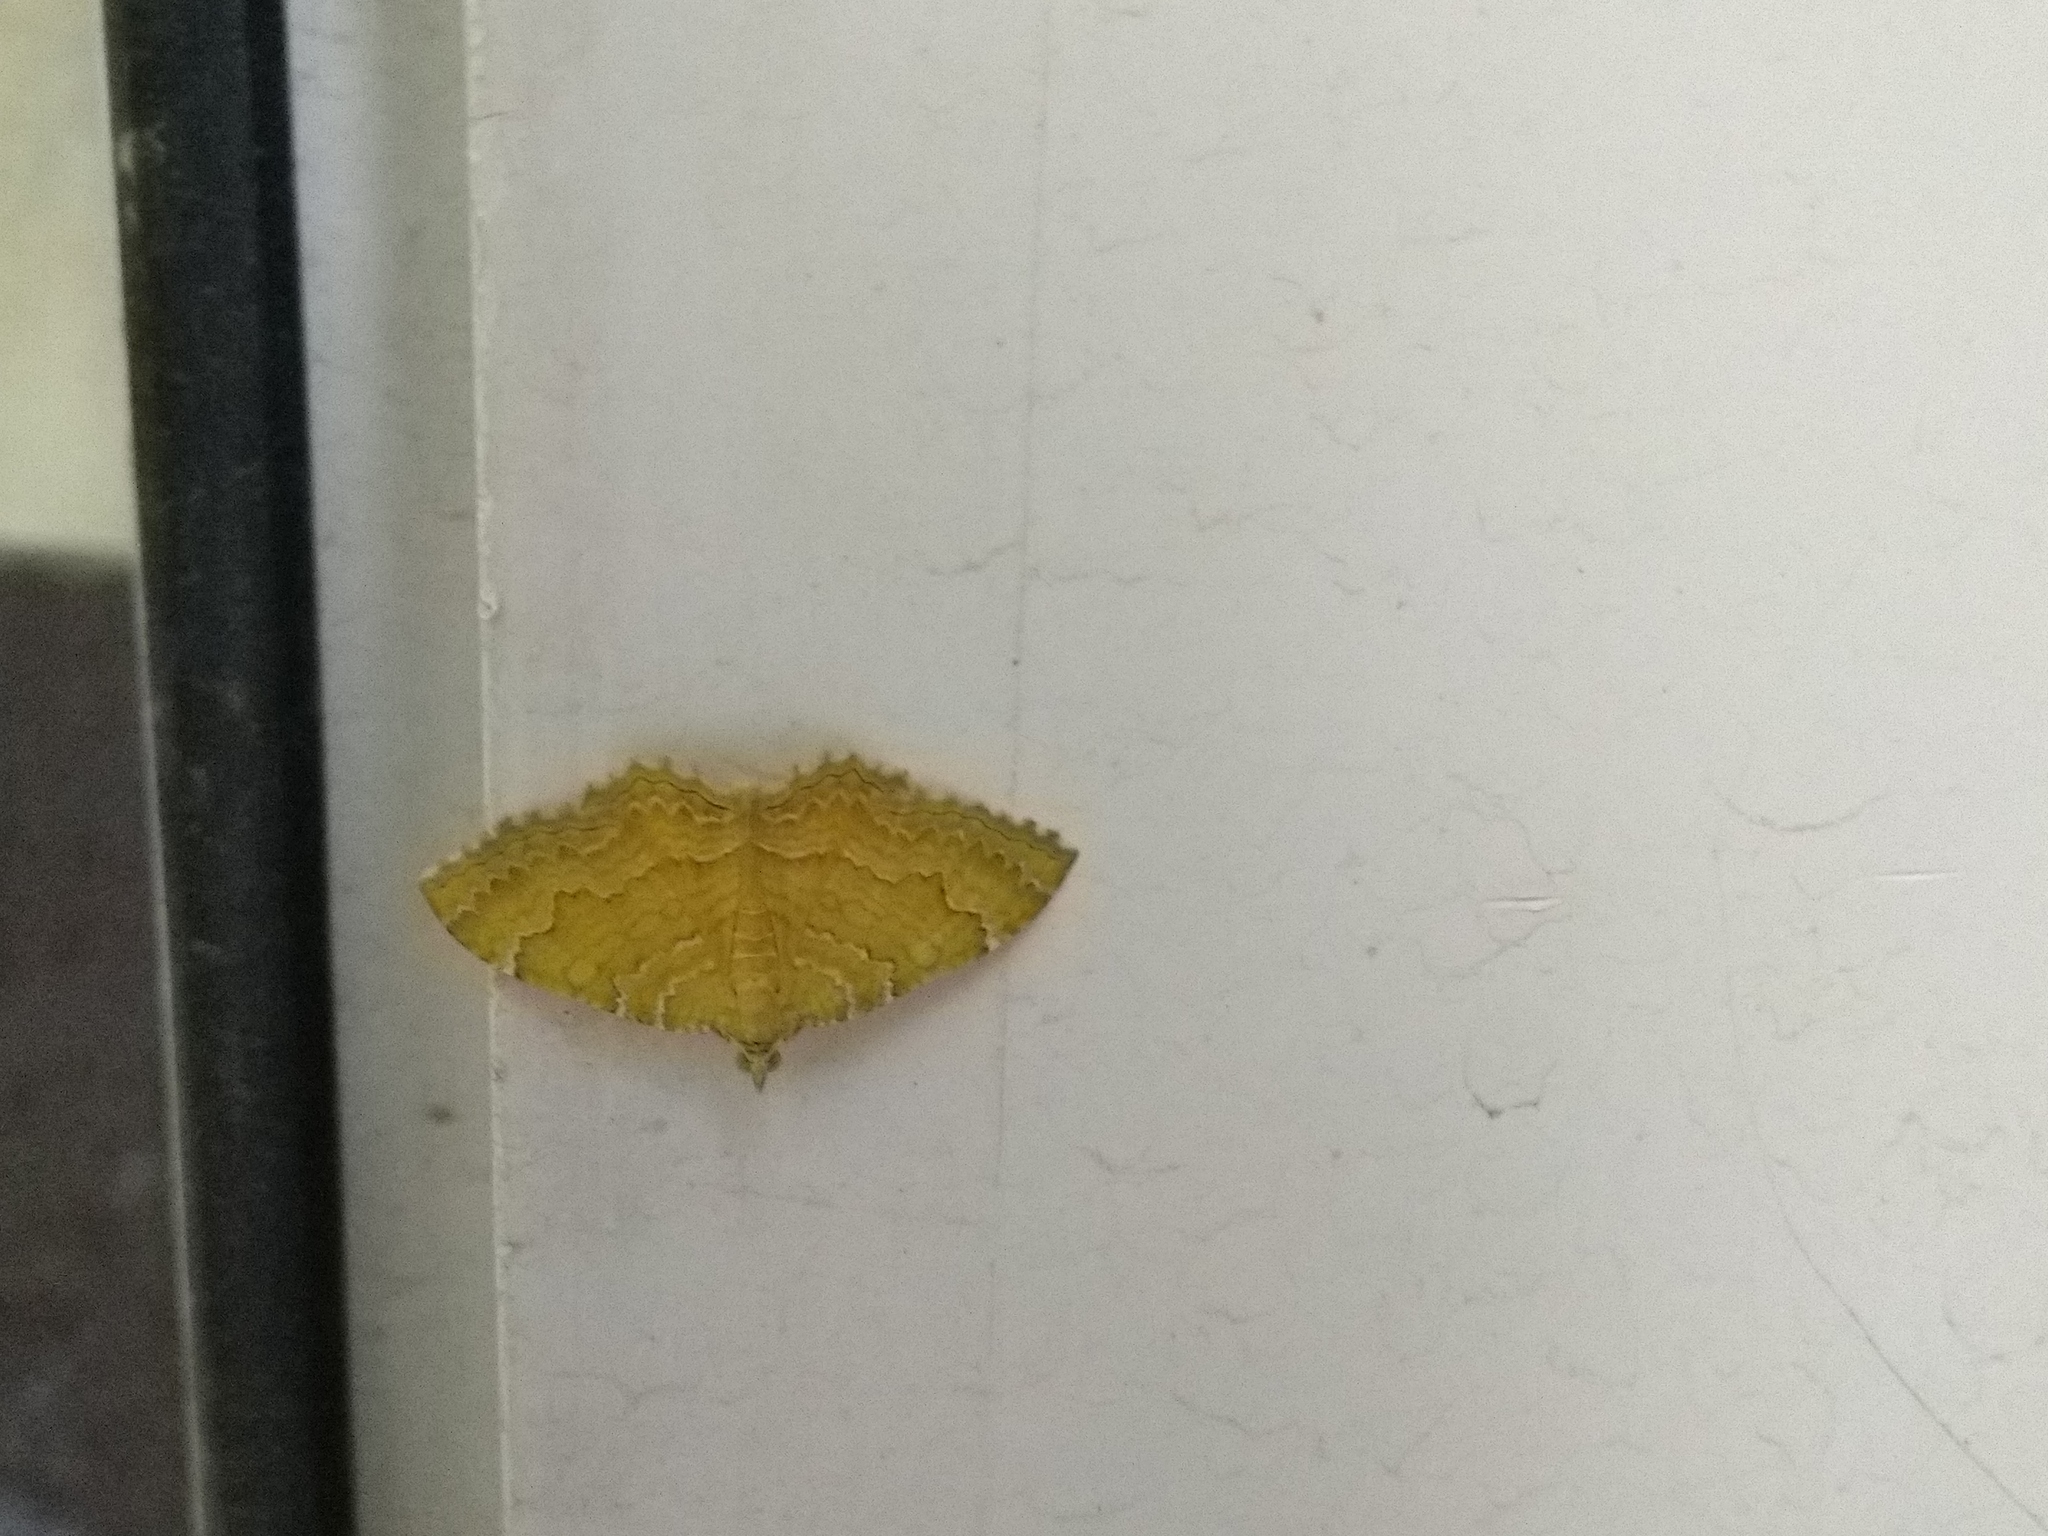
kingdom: Animalia
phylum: Arthropoda
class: Insecta
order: Lepidoptera
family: Geometridae
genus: Camptogramma
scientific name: Camptogramma bilineata
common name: Yellow shell
